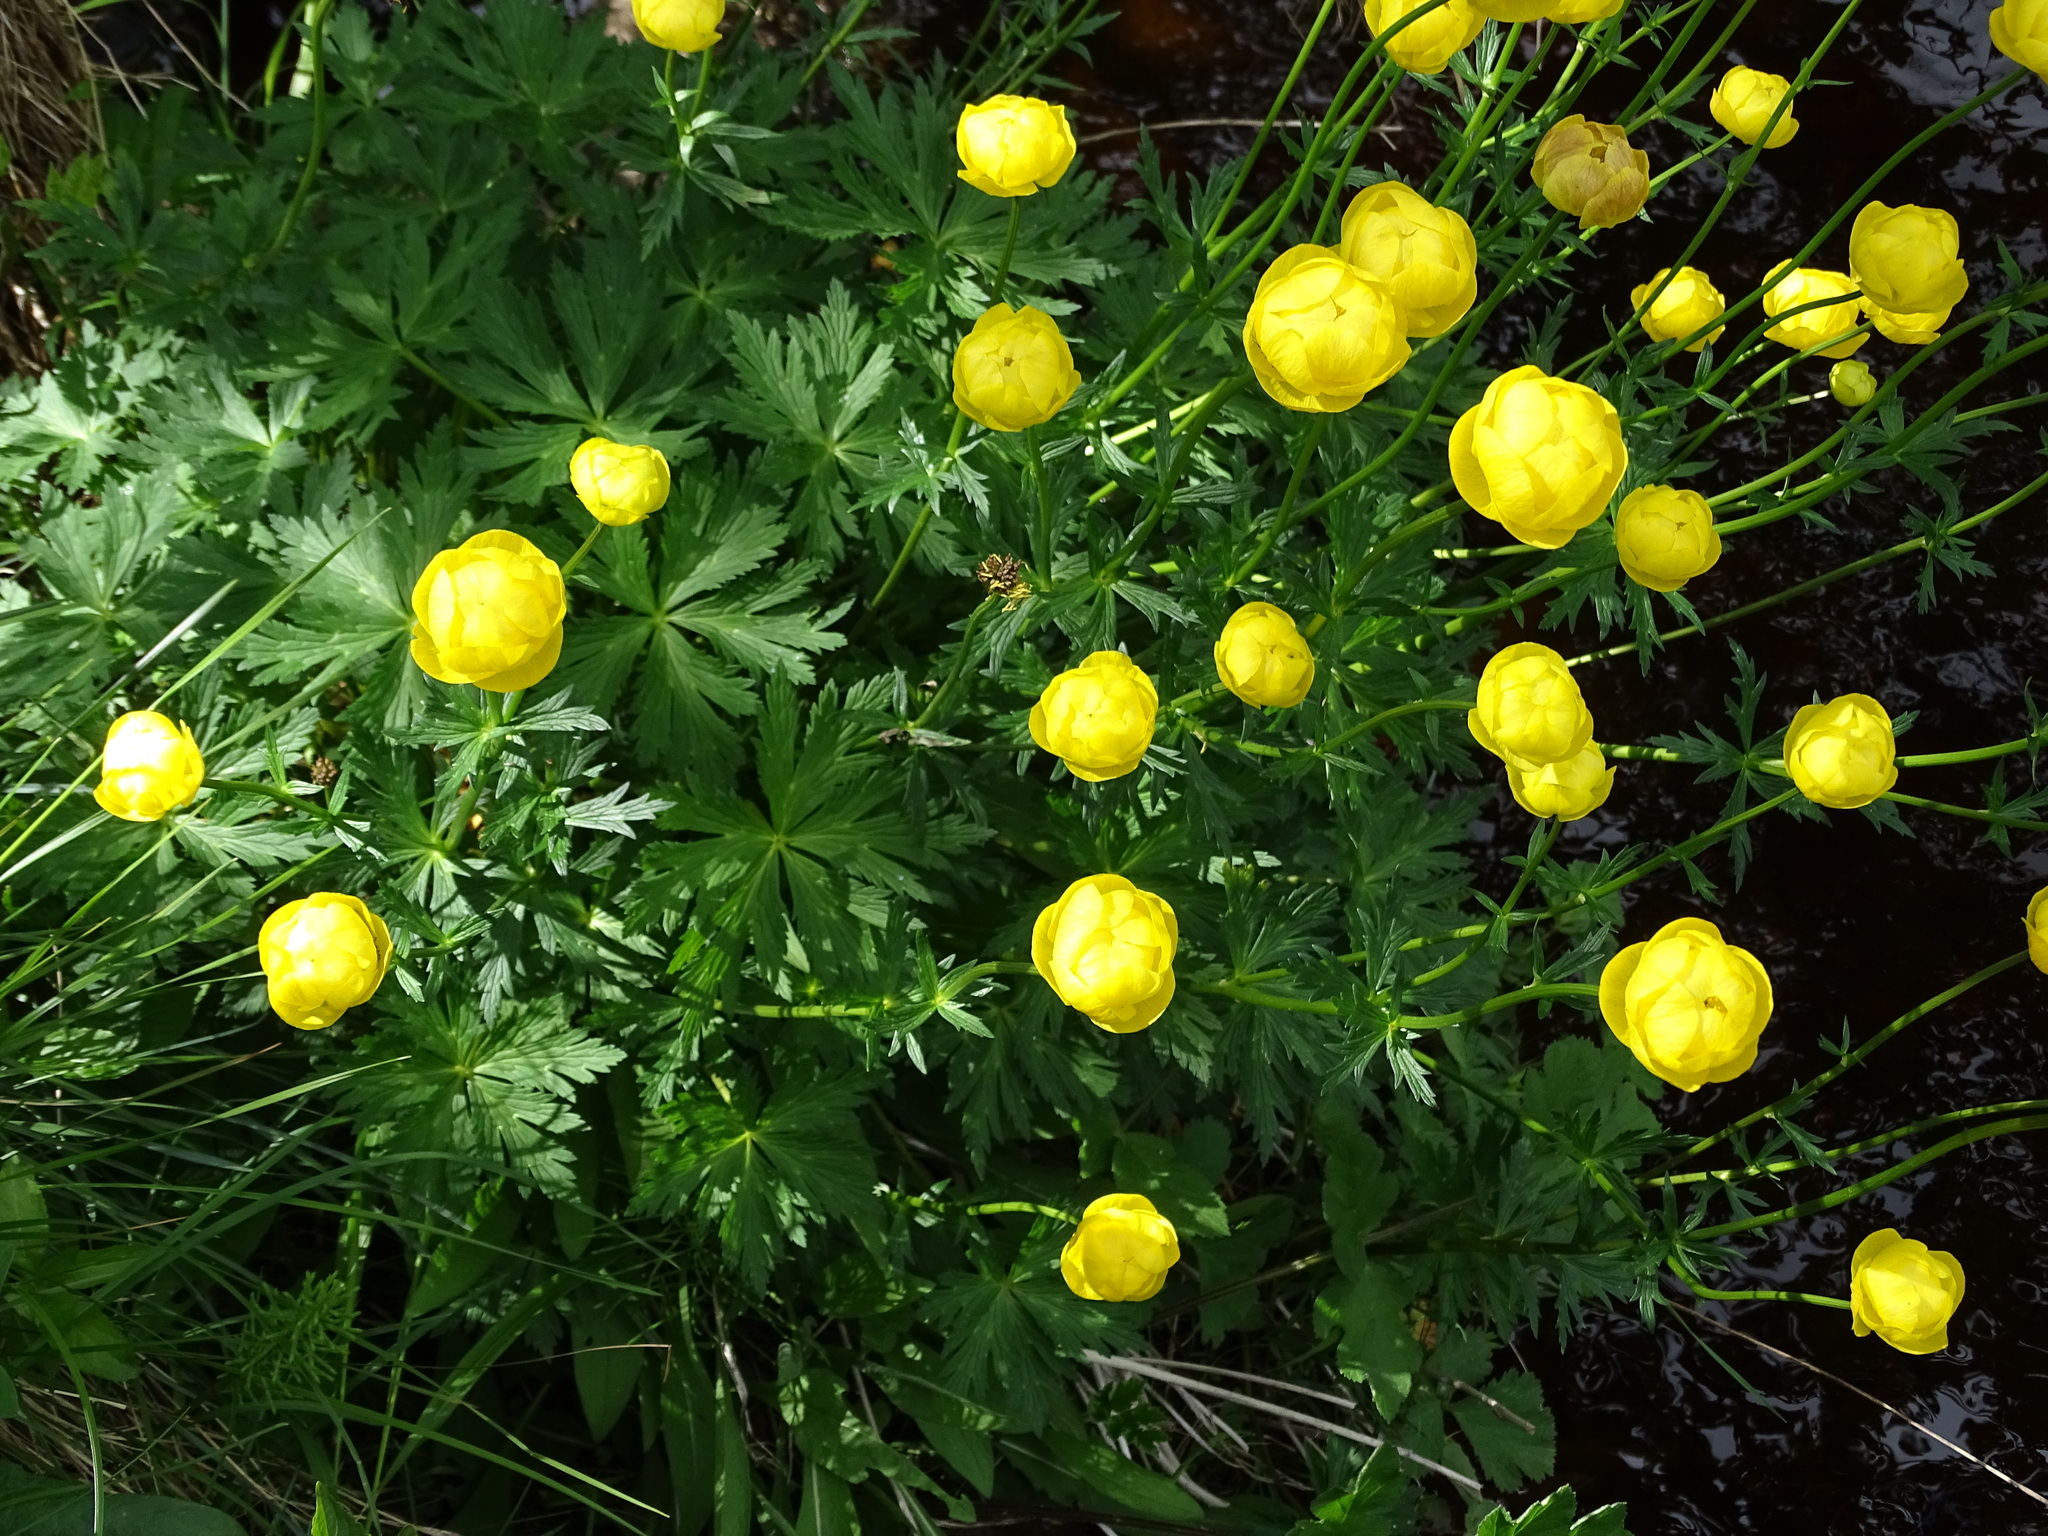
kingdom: Plantae
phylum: Tracheophyta
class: Magnoliopsida
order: Ranunculales
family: Ranunculaceae
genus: Trollius
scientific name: Trollius europaeus
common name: European globeflower
